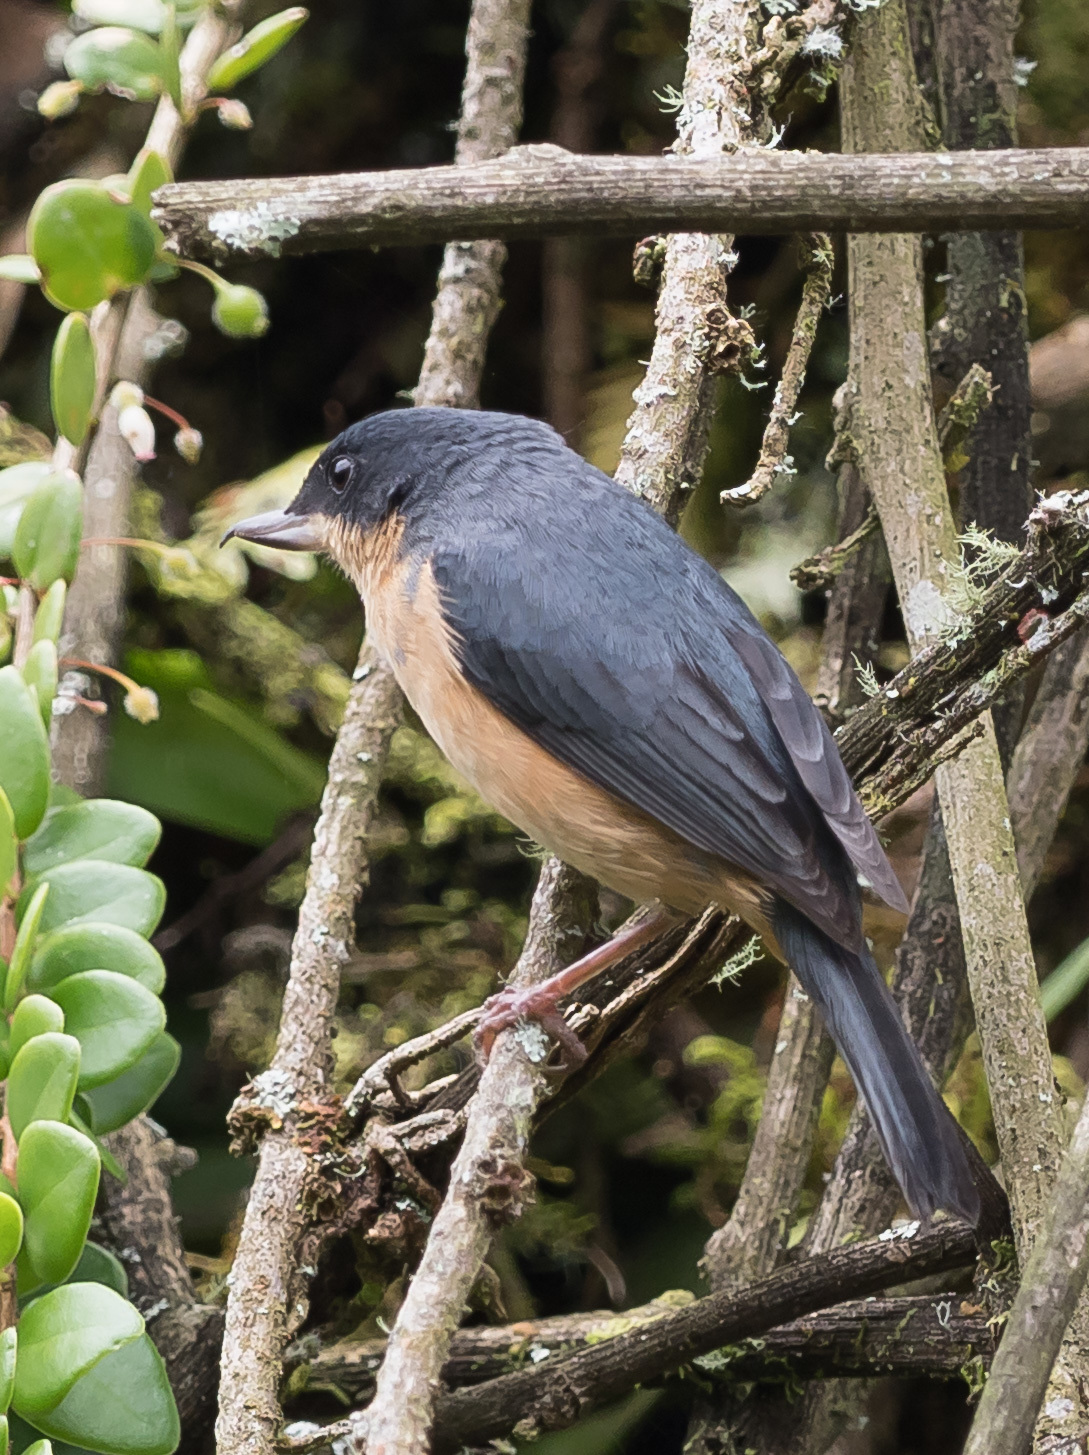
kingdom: Animalia
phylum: Chordata
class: Aves
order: Passeriformes
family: Thraupidae
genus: Diglossa
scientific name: Diglossa sittoides
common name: Rusty flowerpiercer
